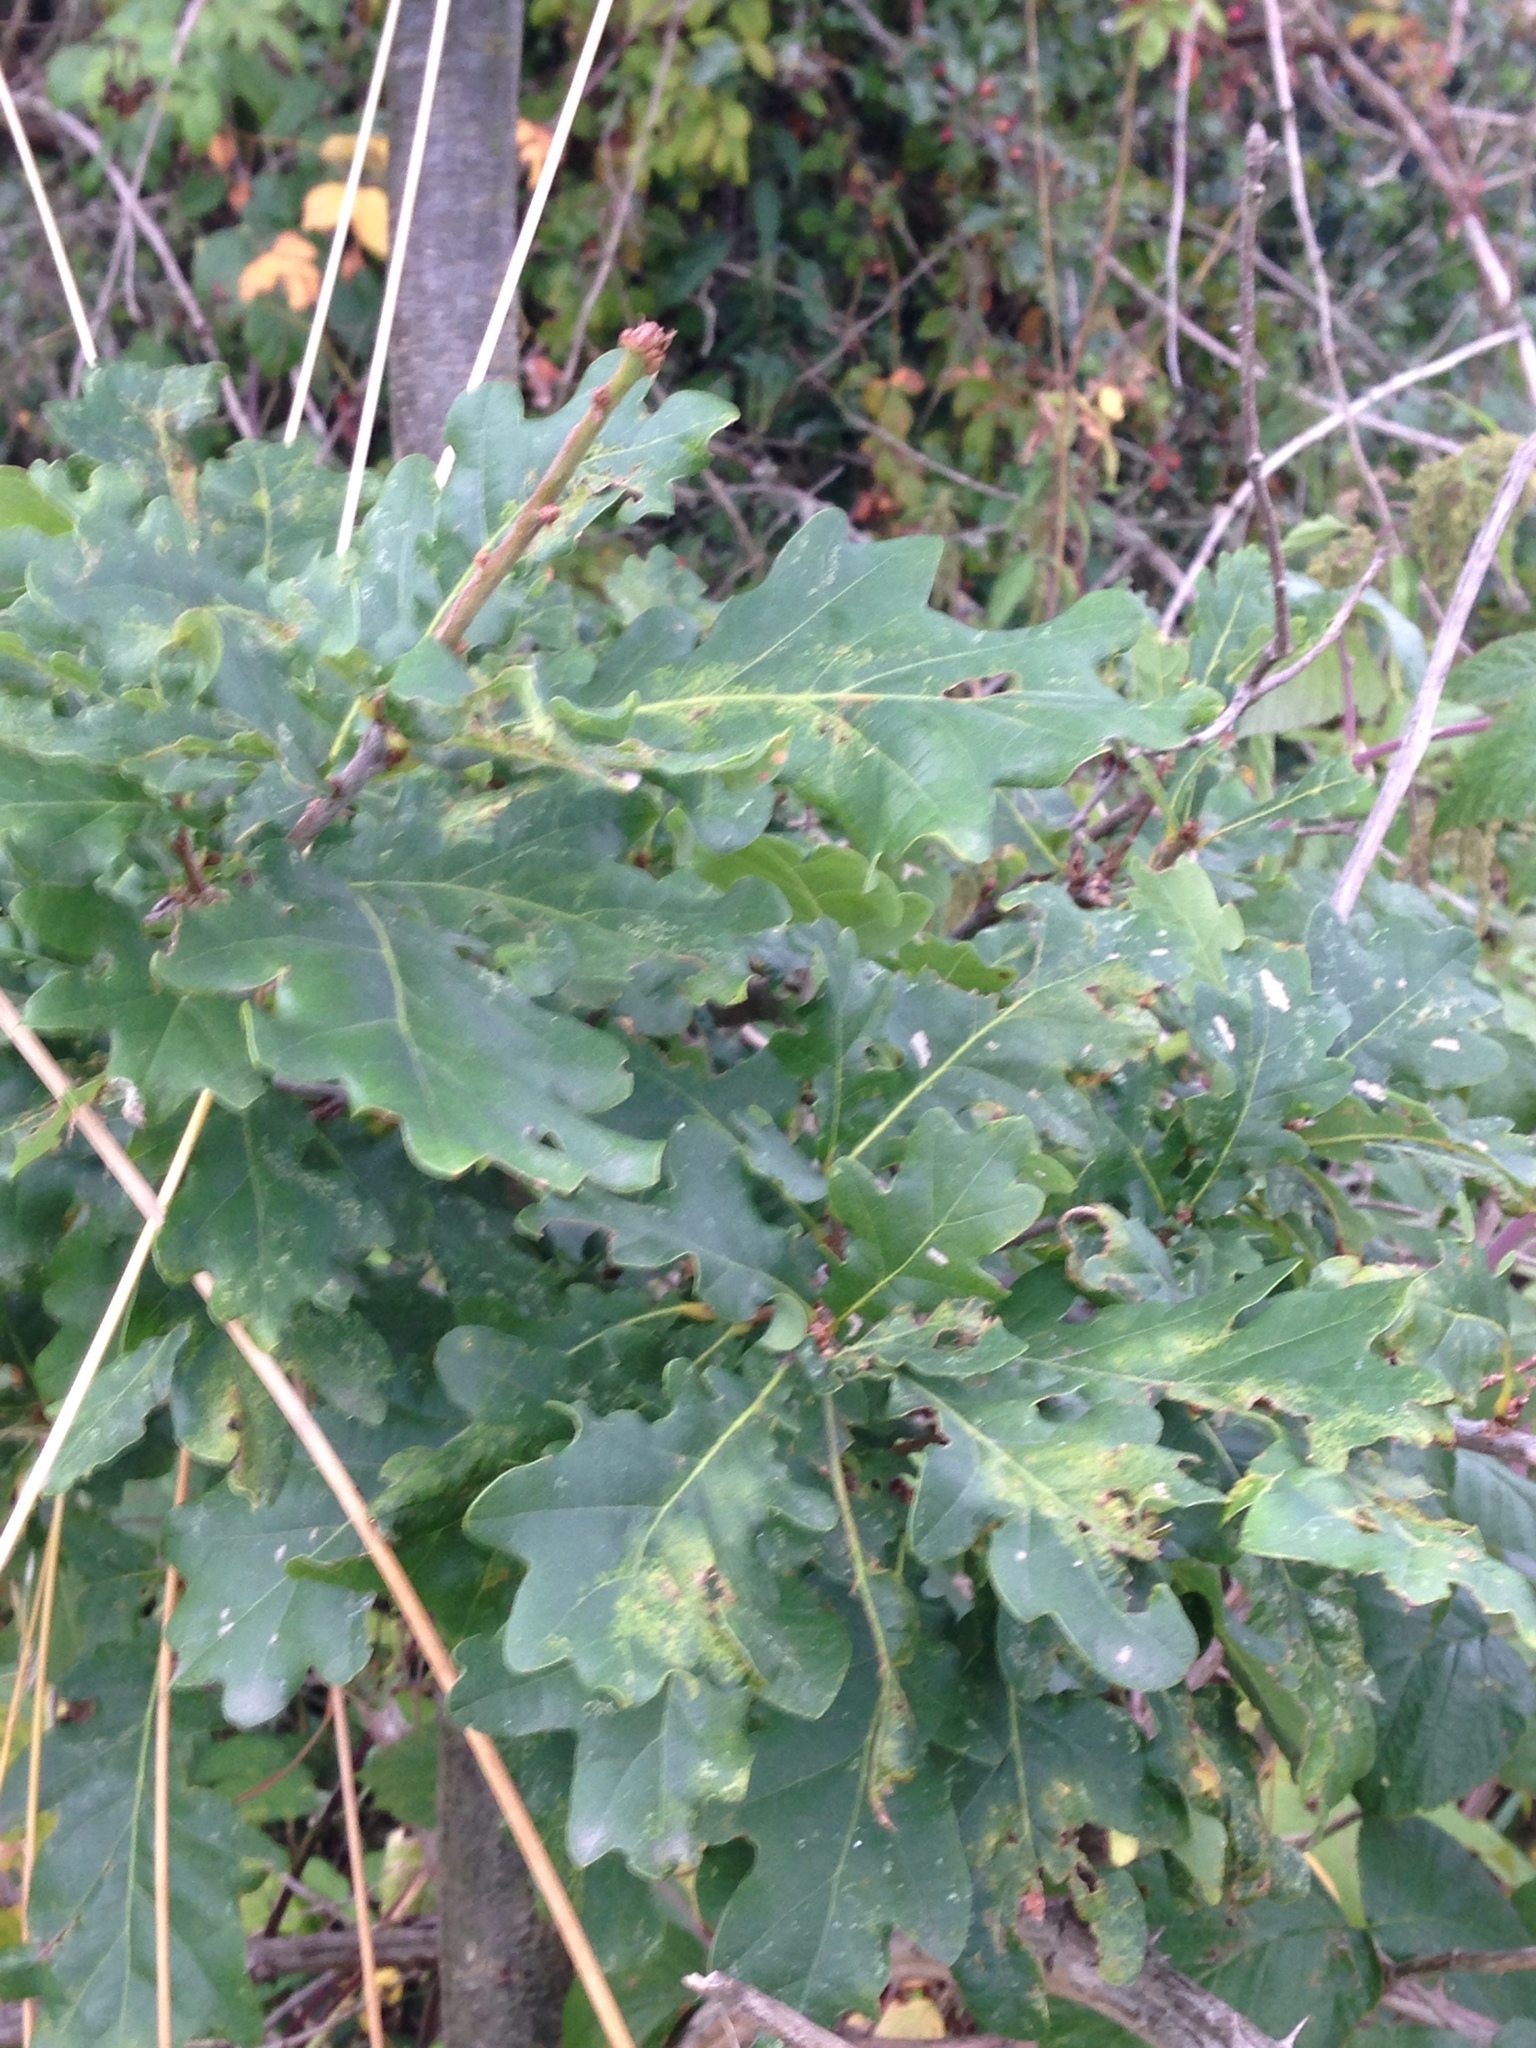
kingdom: Plantae
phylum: Tracheophyta
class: Magnoliopsida
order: Fagales
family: Fagaceae
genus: Quercus
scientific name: Quercus robur
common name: Pedunculate oak
